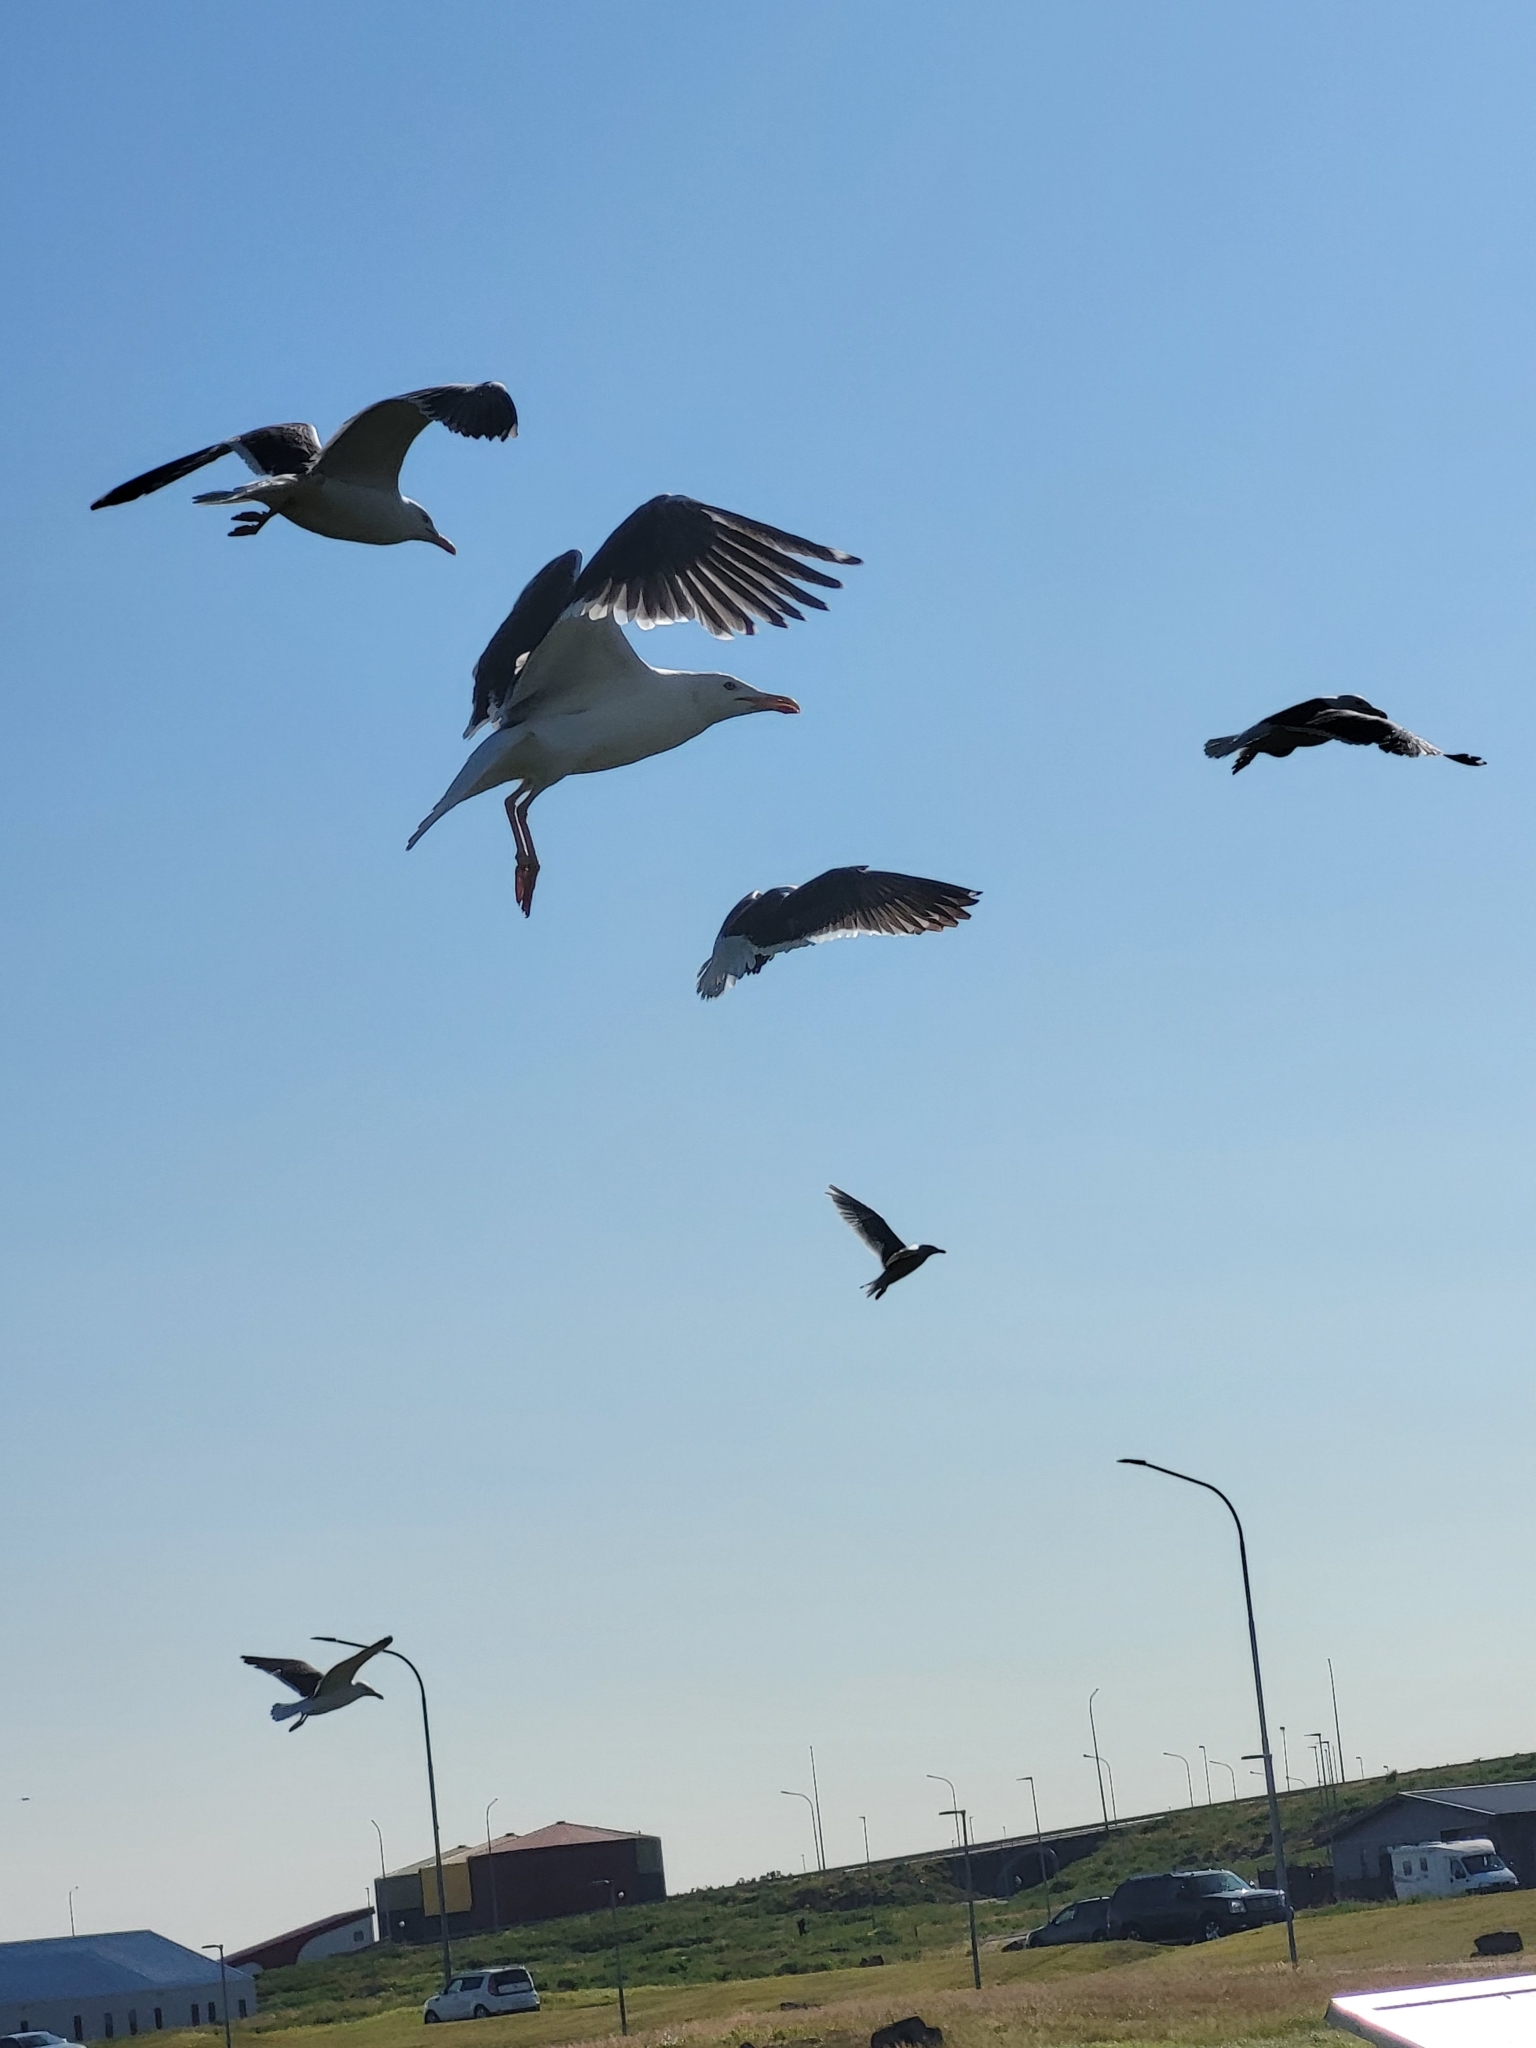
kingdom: Animalia
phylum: Chordata
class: Aves
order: Charadriiformes
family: Laridae
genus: Larus
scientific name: Larus fuscus
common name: Lesser black-backed gull
